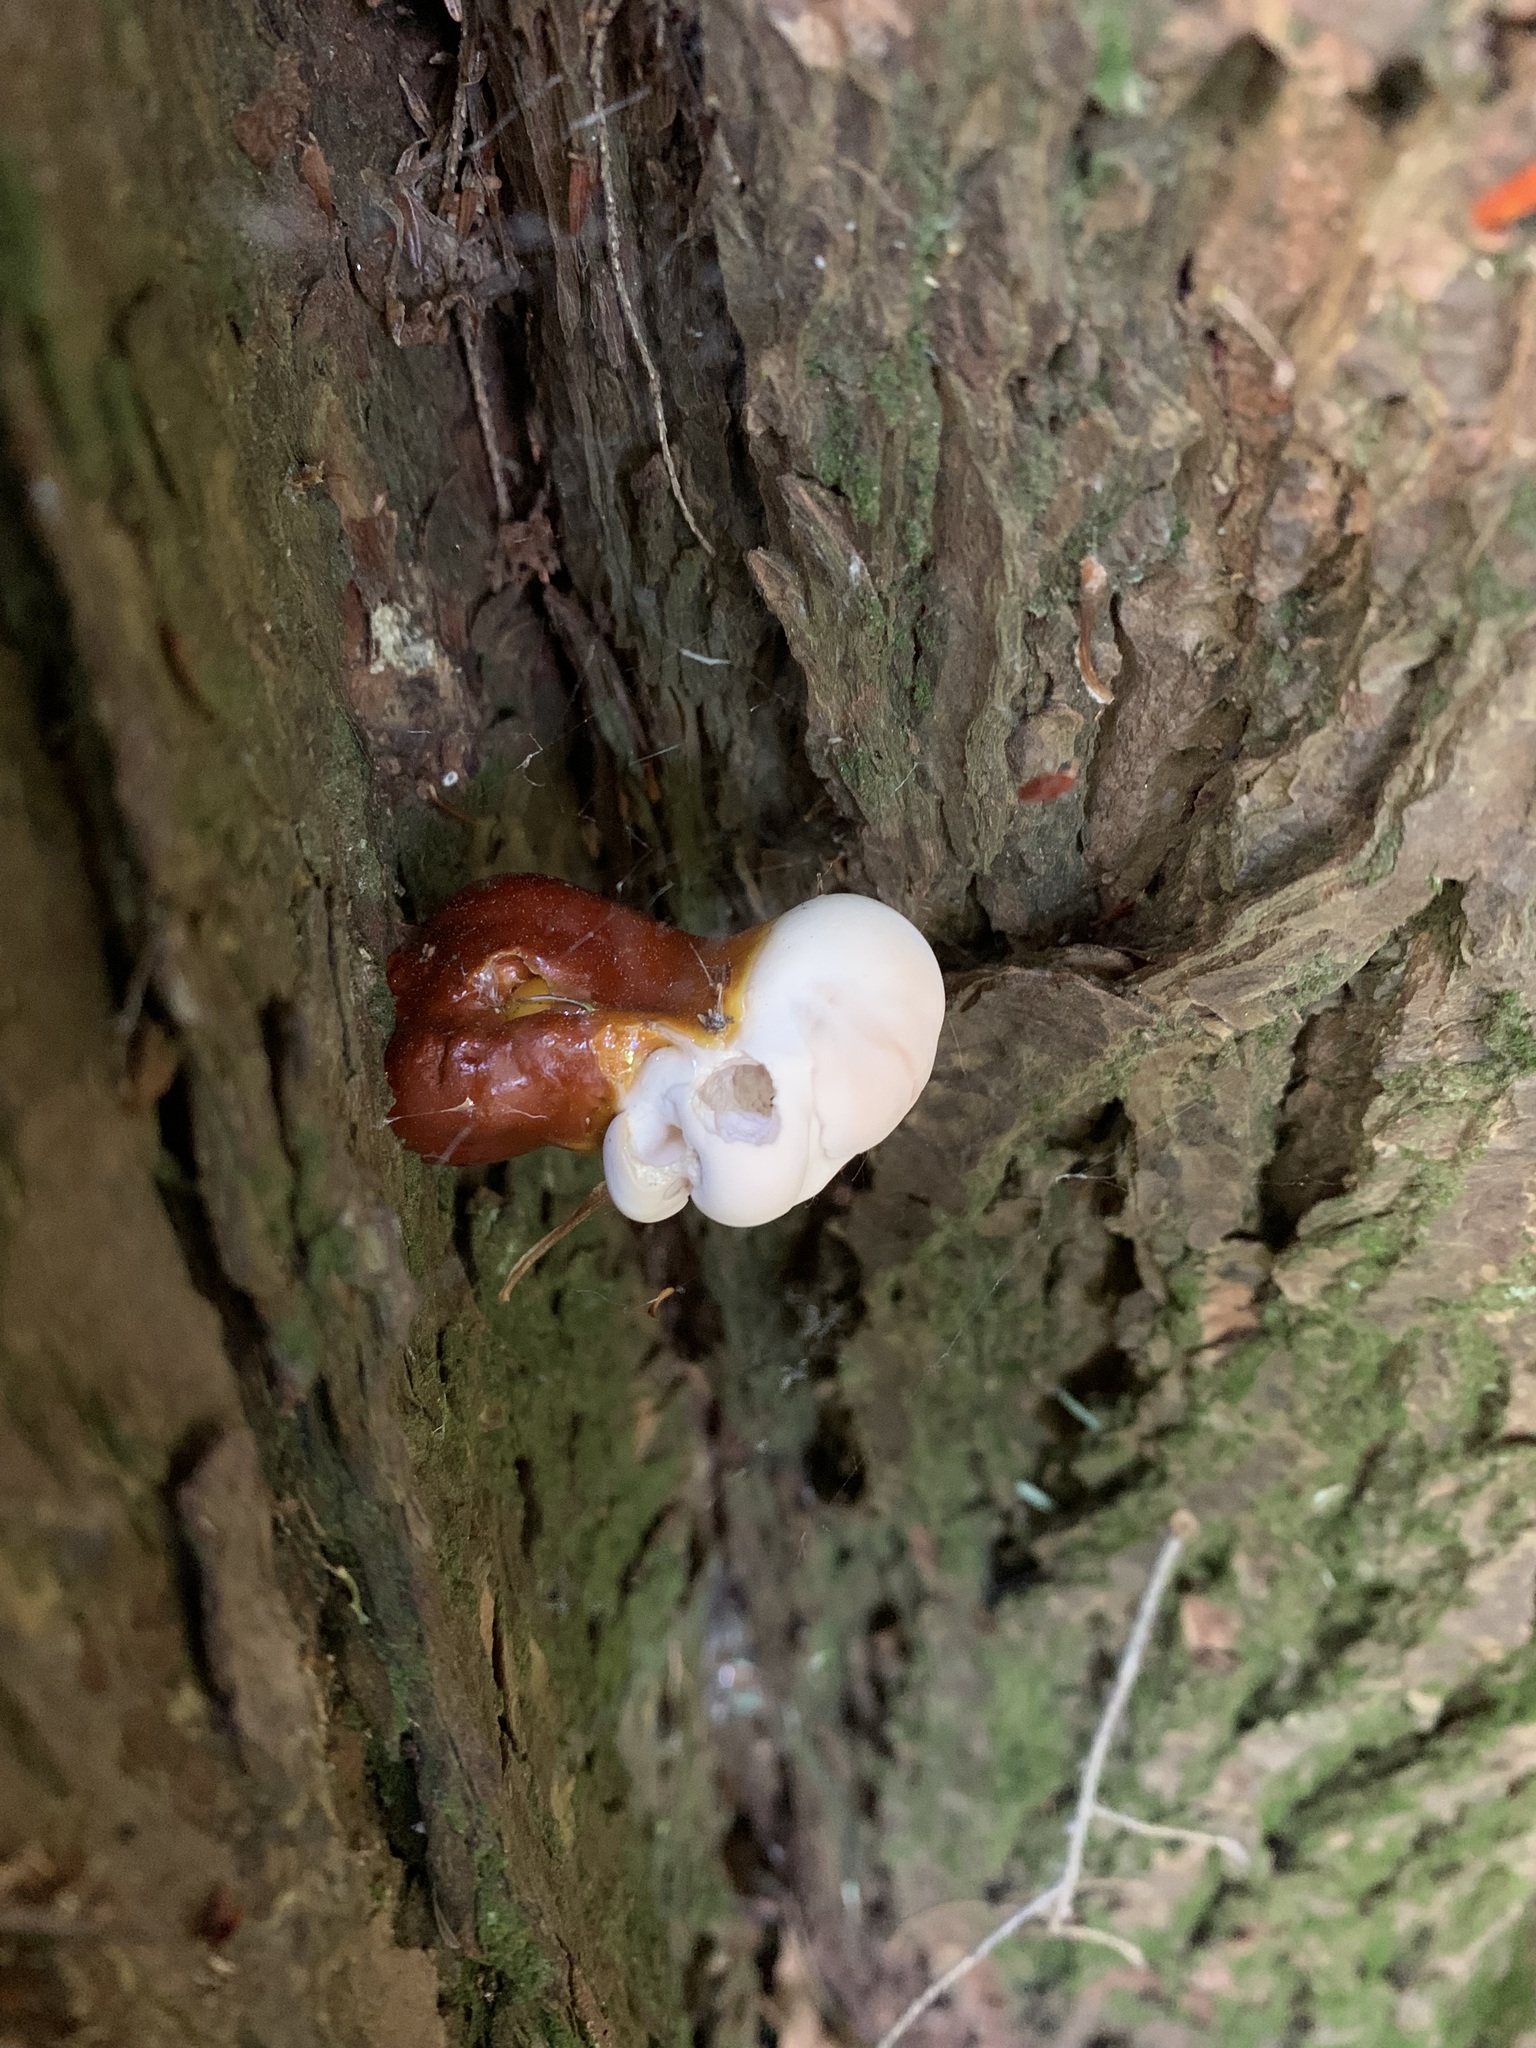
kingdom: Fungi
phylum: Basidiomycota
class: Agaricomycetes
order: Polyporales
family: Polyporaceae
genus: Ganoderma
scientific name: Ganoderma tsugae
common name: Hemlock varnish shelf
